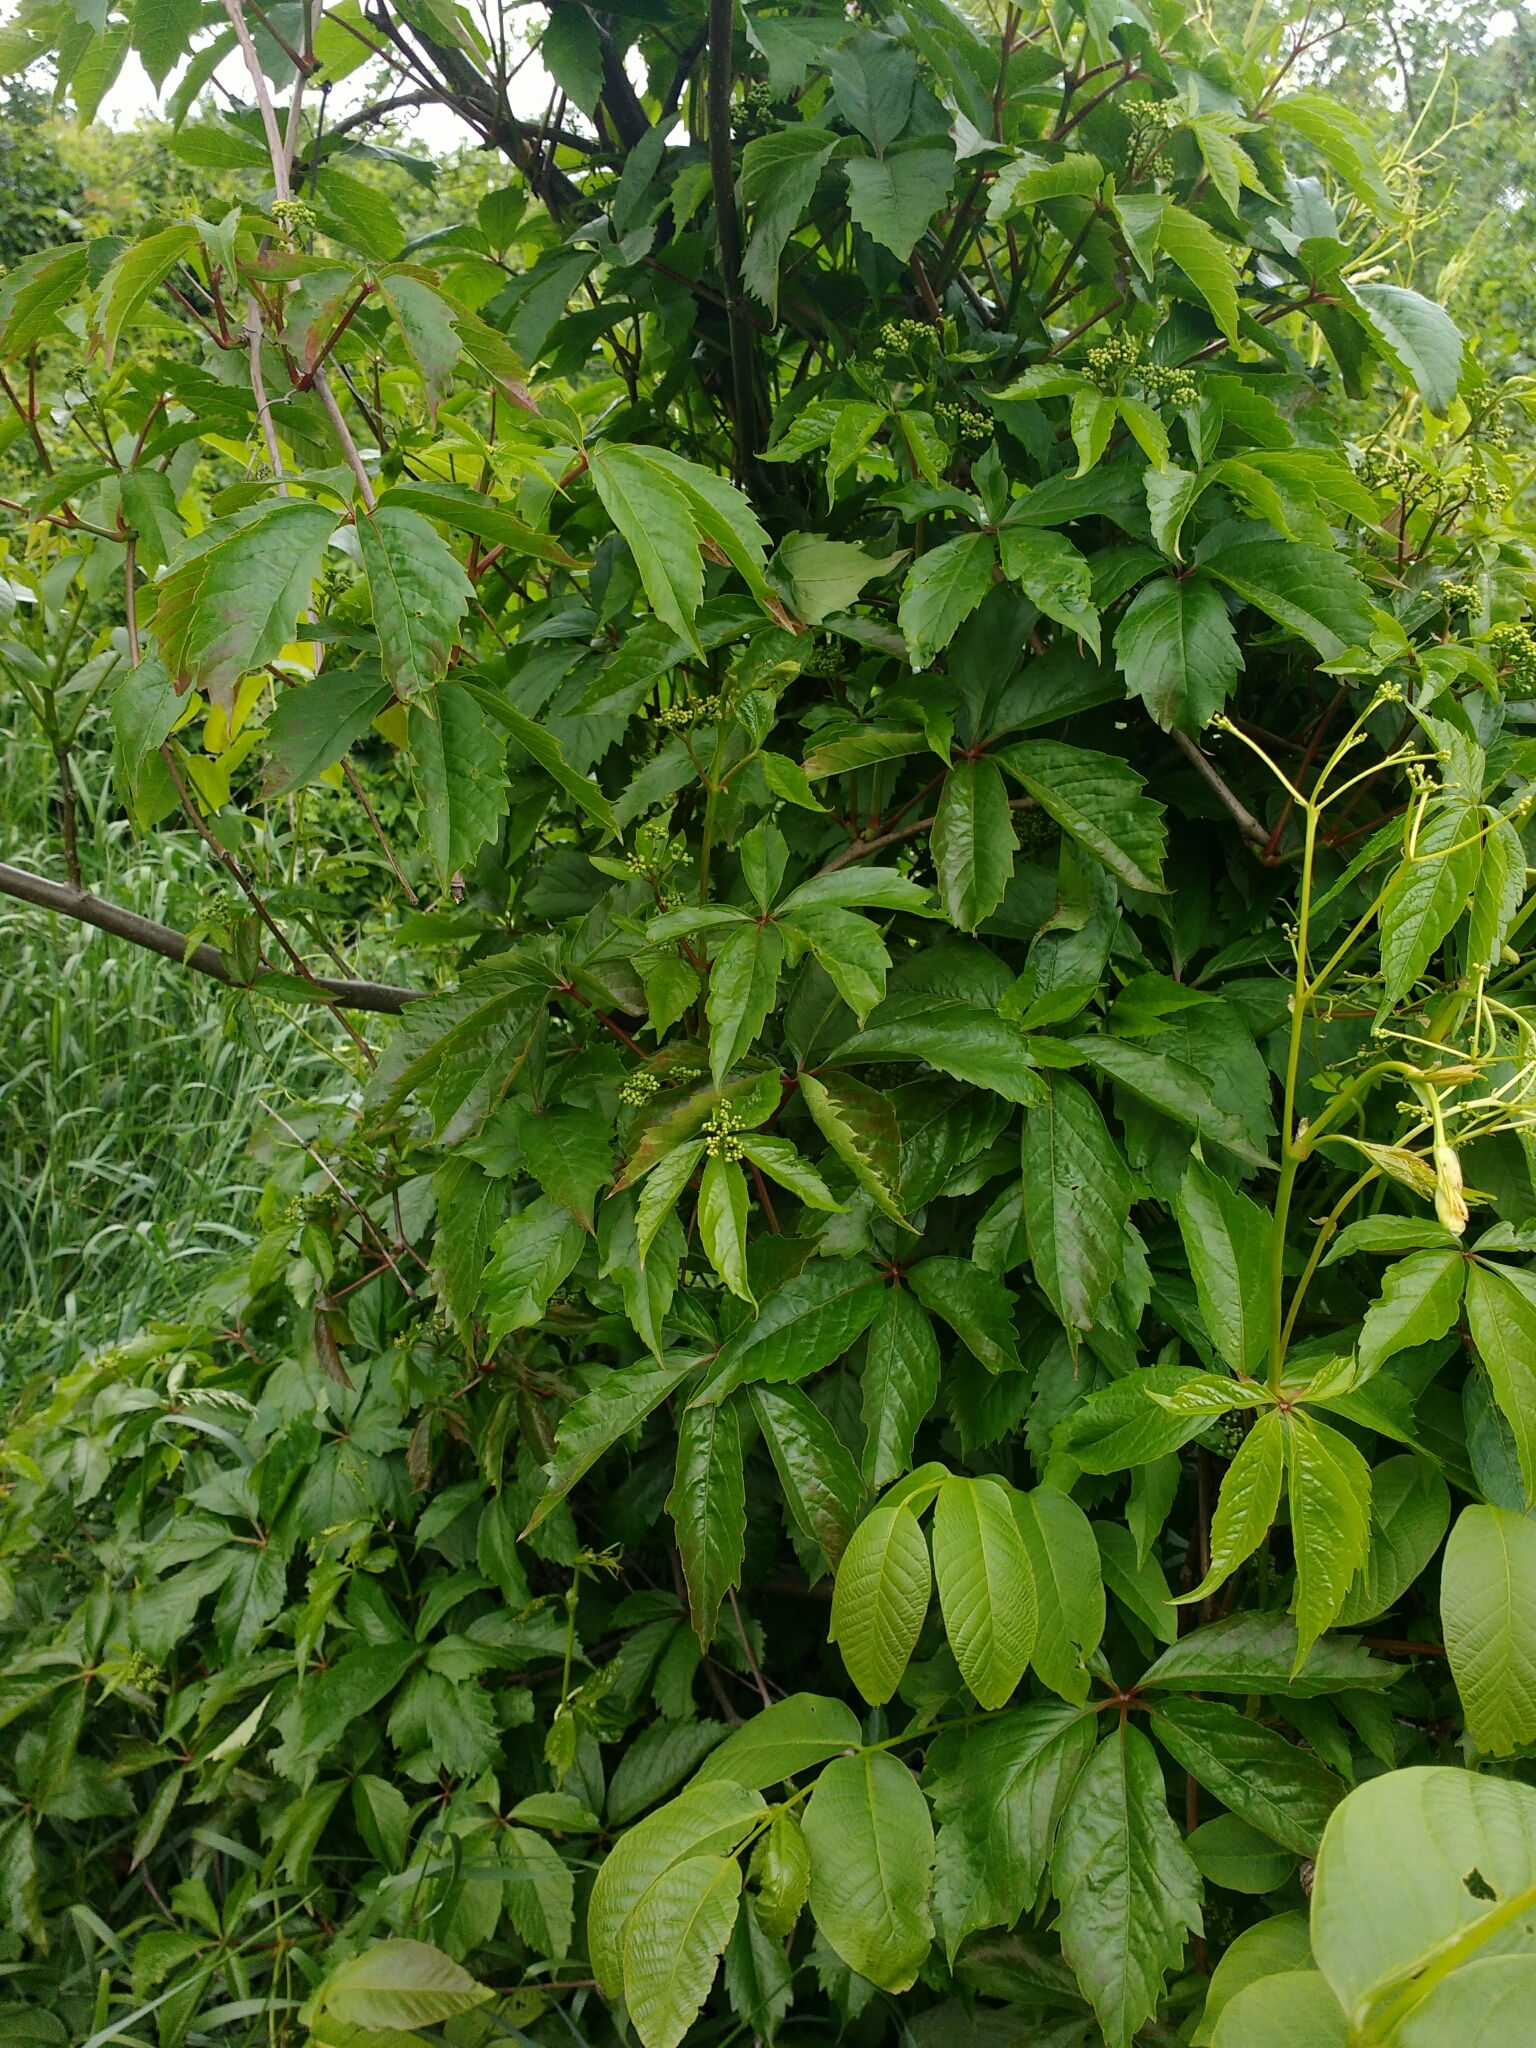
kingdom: Plantae
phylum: Tracheophyta
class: Magnoliopsida
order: Vitales
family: Vitaceae
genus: Parthenocissus
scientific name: Parthenocissus inserta
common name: False virginia-creeper
